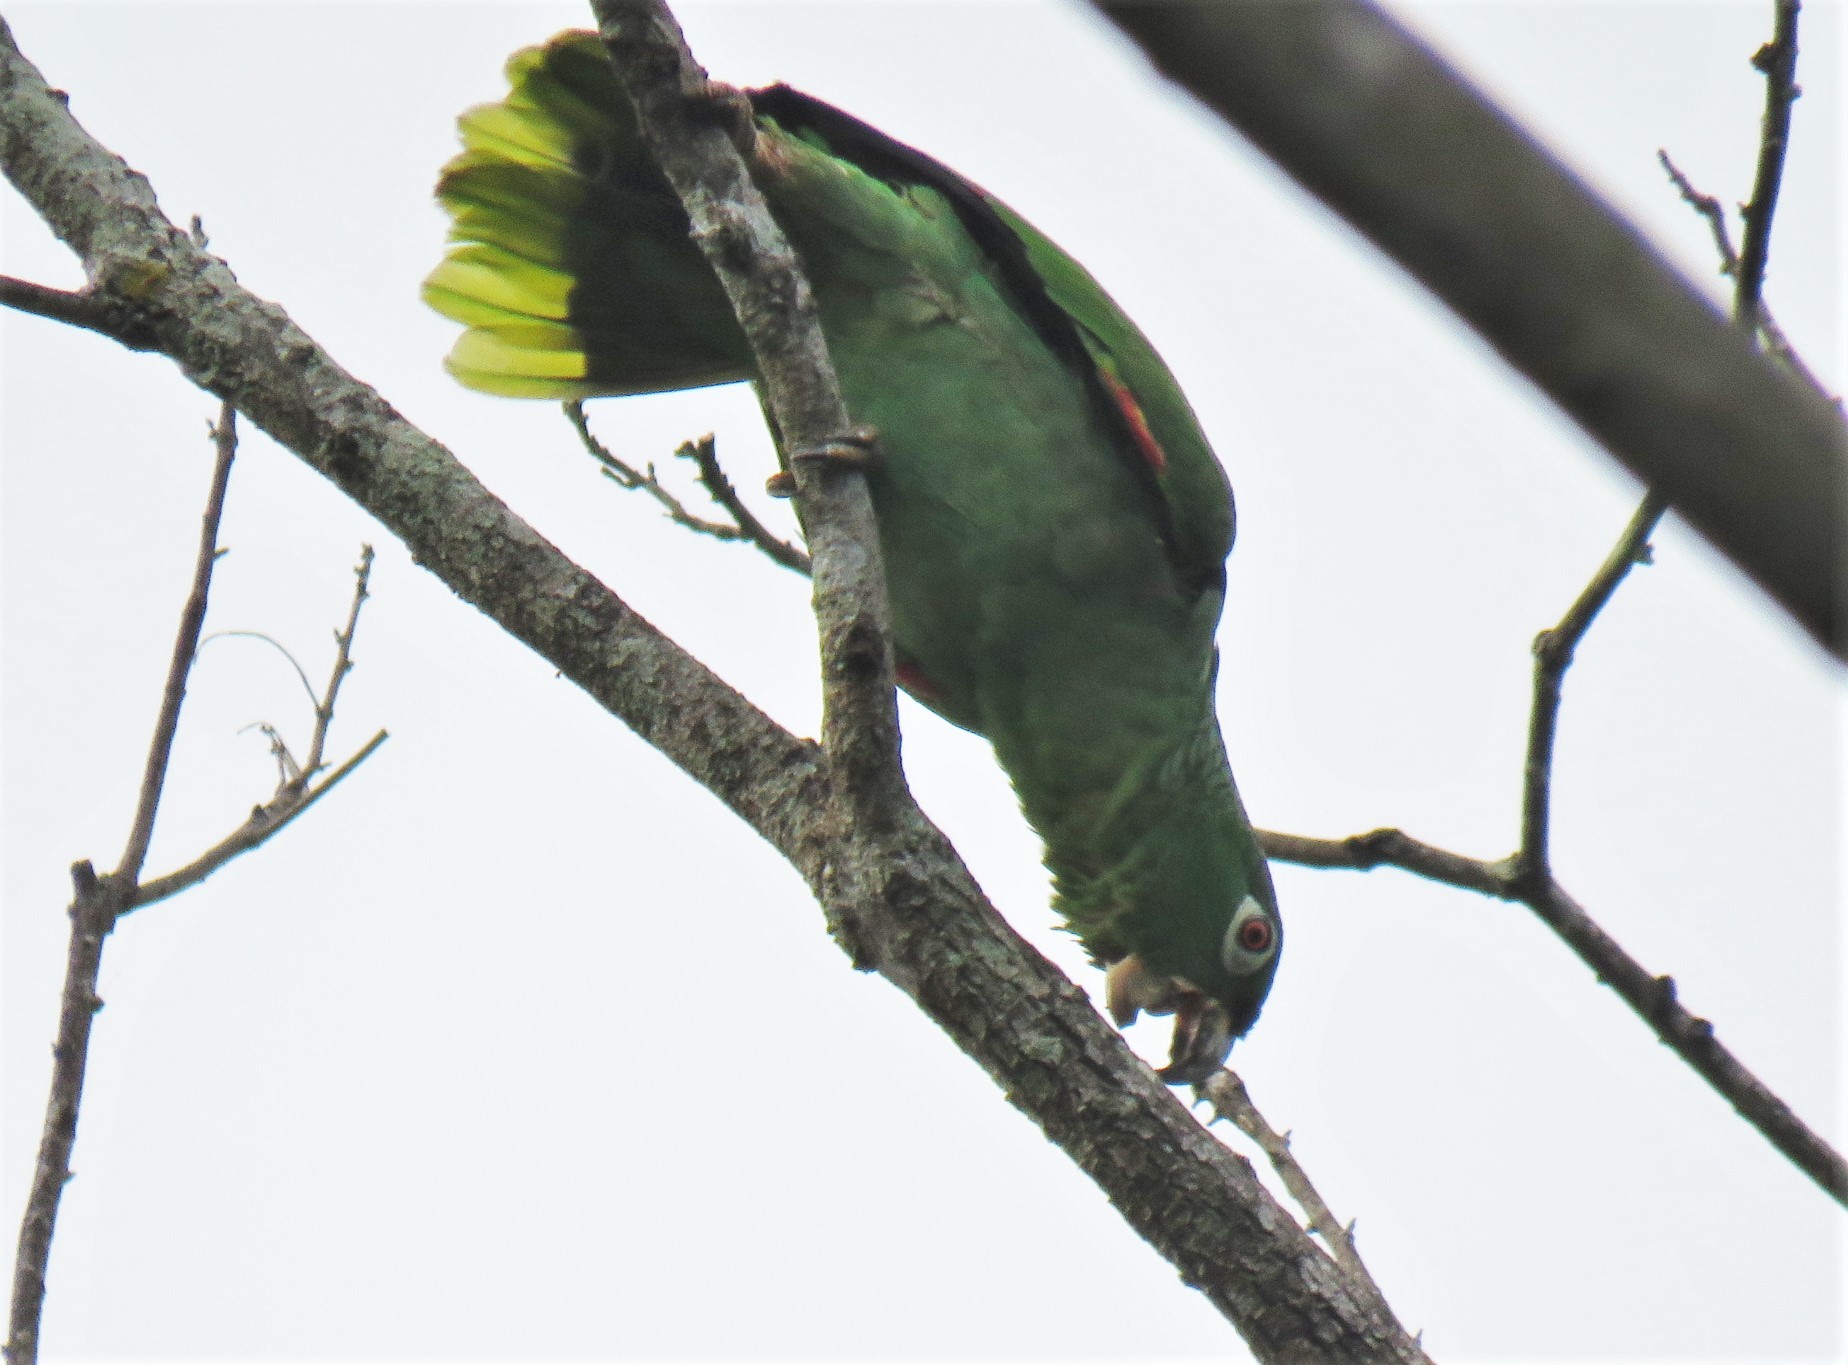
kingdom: Animalia
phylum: Chordata
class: Aves
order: Psittaciformes
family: Psittacidae
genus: Amazona
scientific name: Amazona farinosa
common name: Mealy parrot
